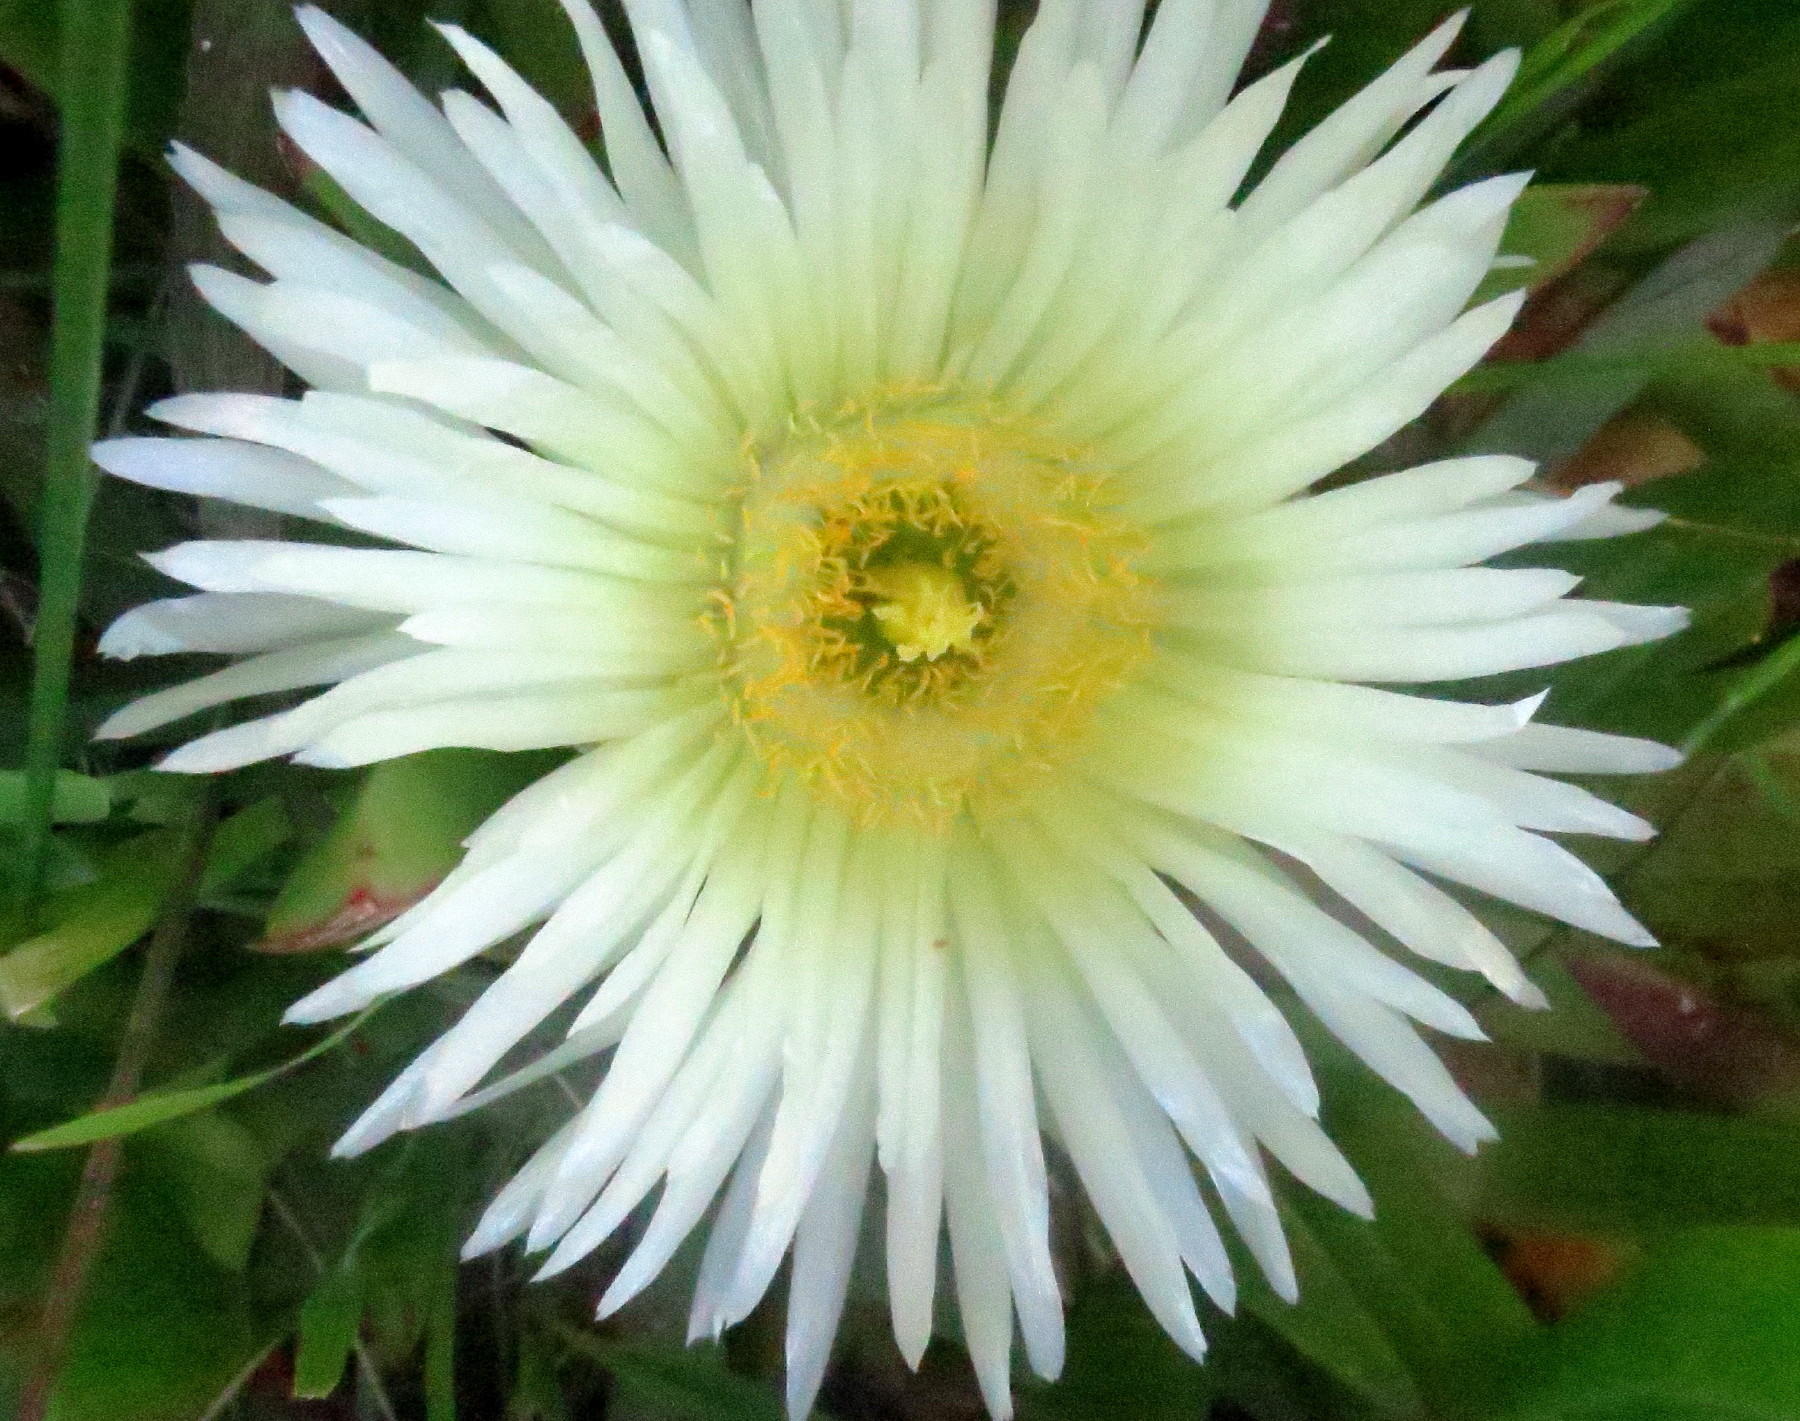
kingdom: Plantae
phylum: Tracheophyta
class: Magnoliopsida
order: Caryophyllales
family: Aizoaceae
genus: Carpobrotus
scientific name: Carpobrotus edulis
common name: Hottentot-fig
